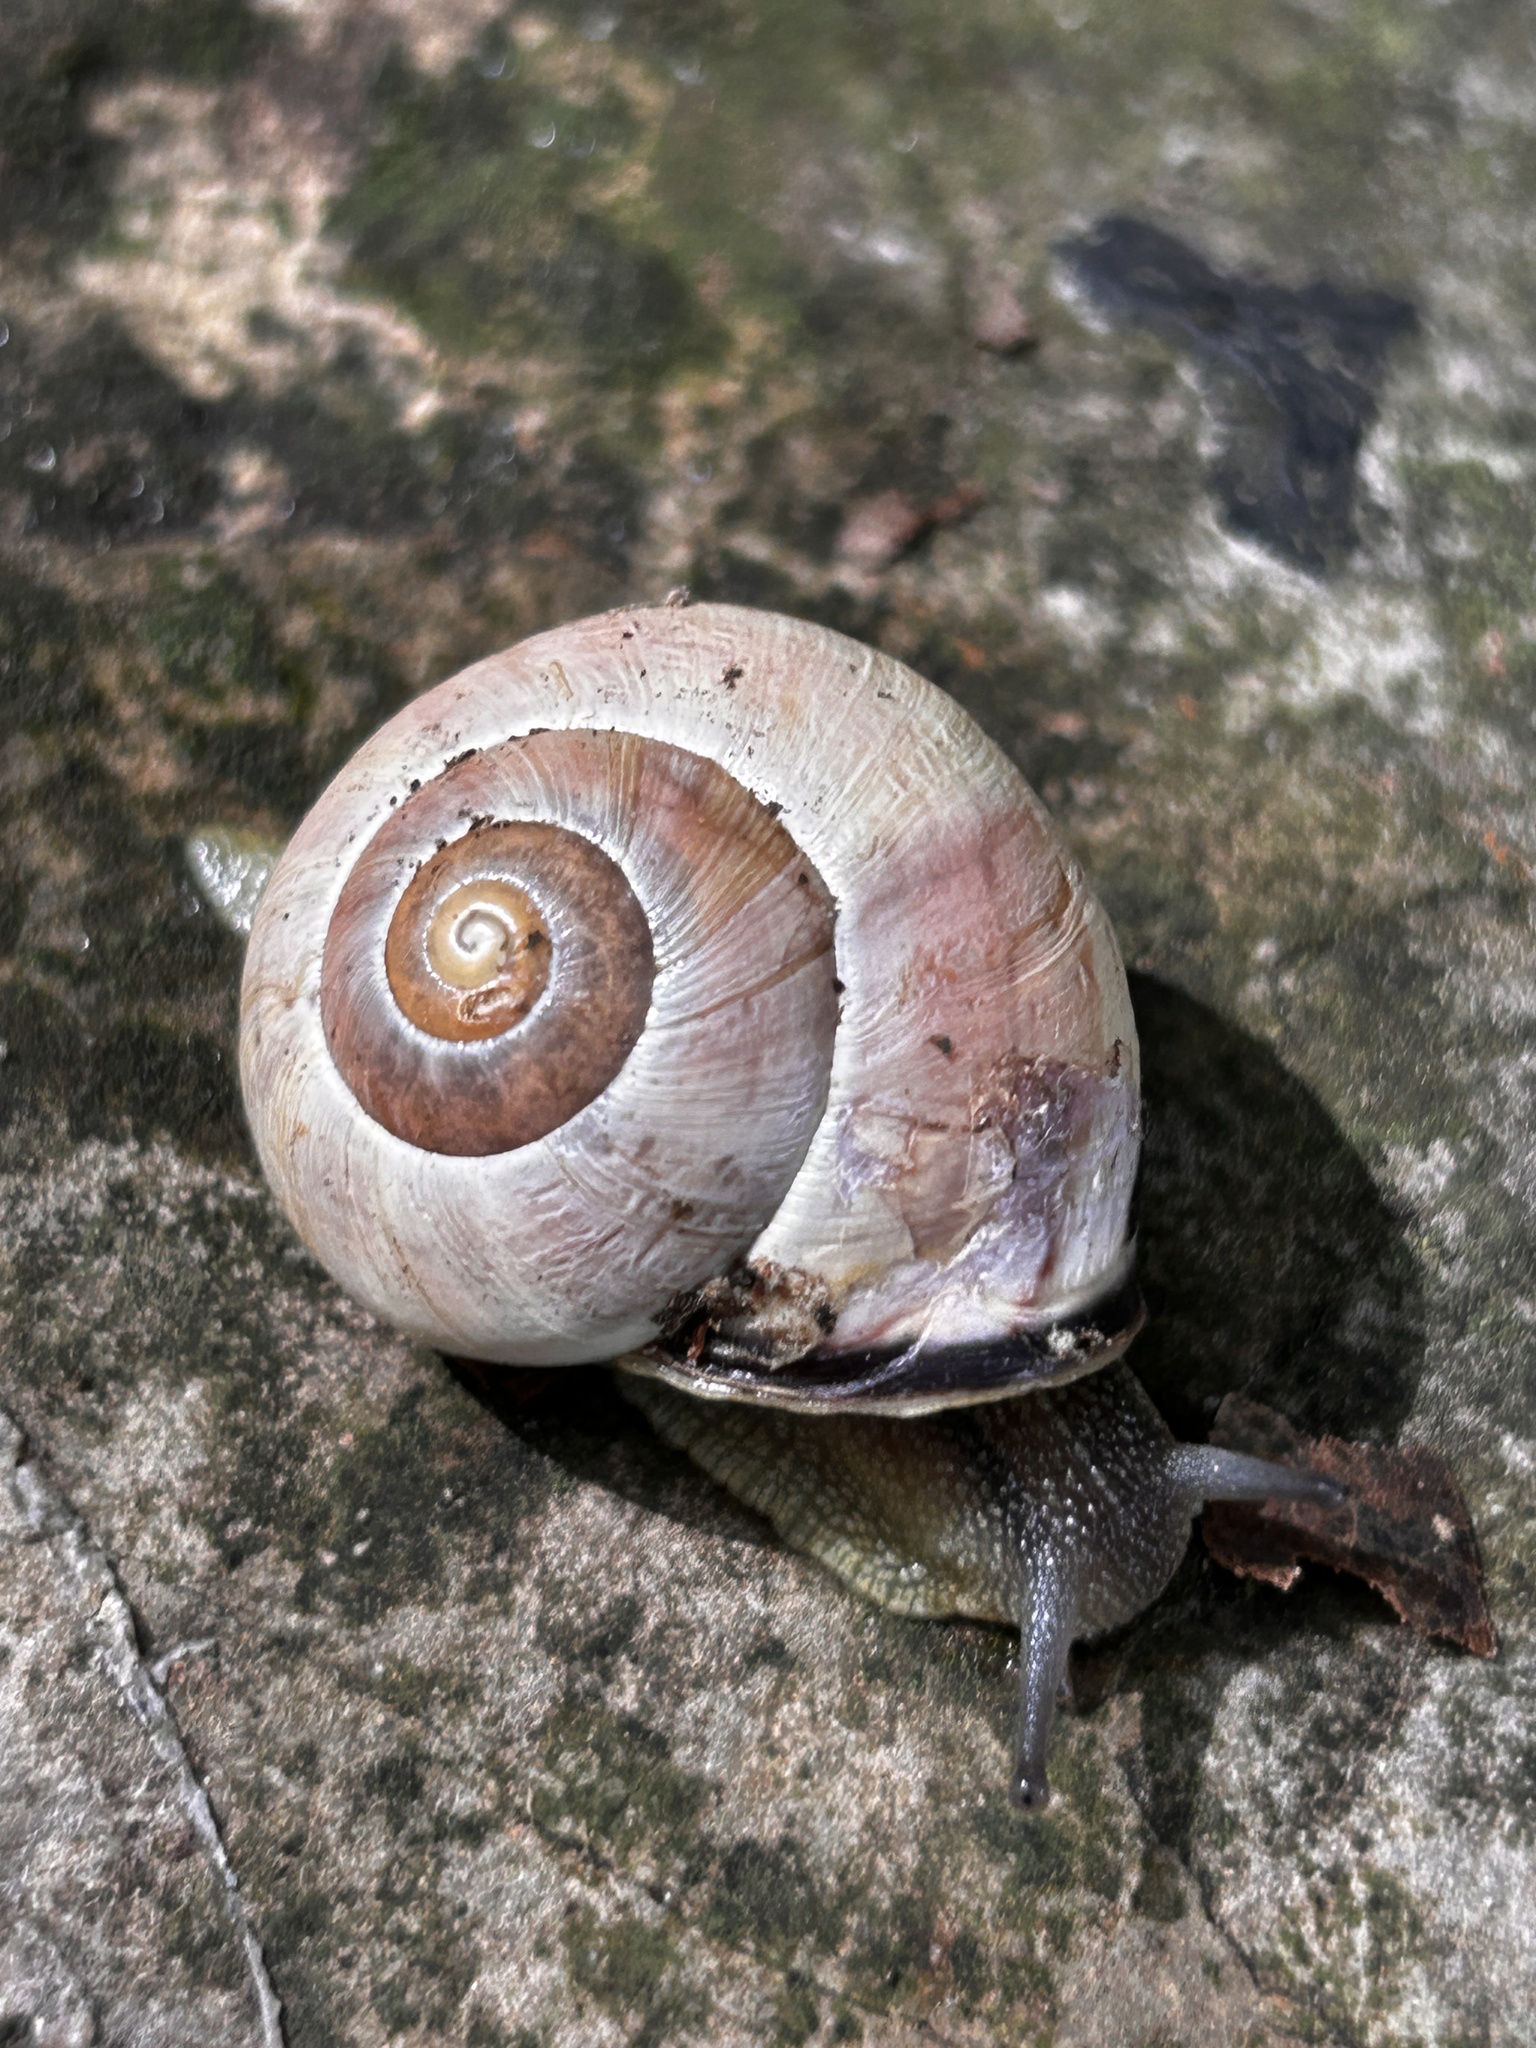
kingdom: Animalia
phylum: Mollusca
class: Gastropoda
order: Stylommatophora
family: Helicidae
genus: Cepaea
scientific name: Cepaea nemoralis
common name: Grovesnail
